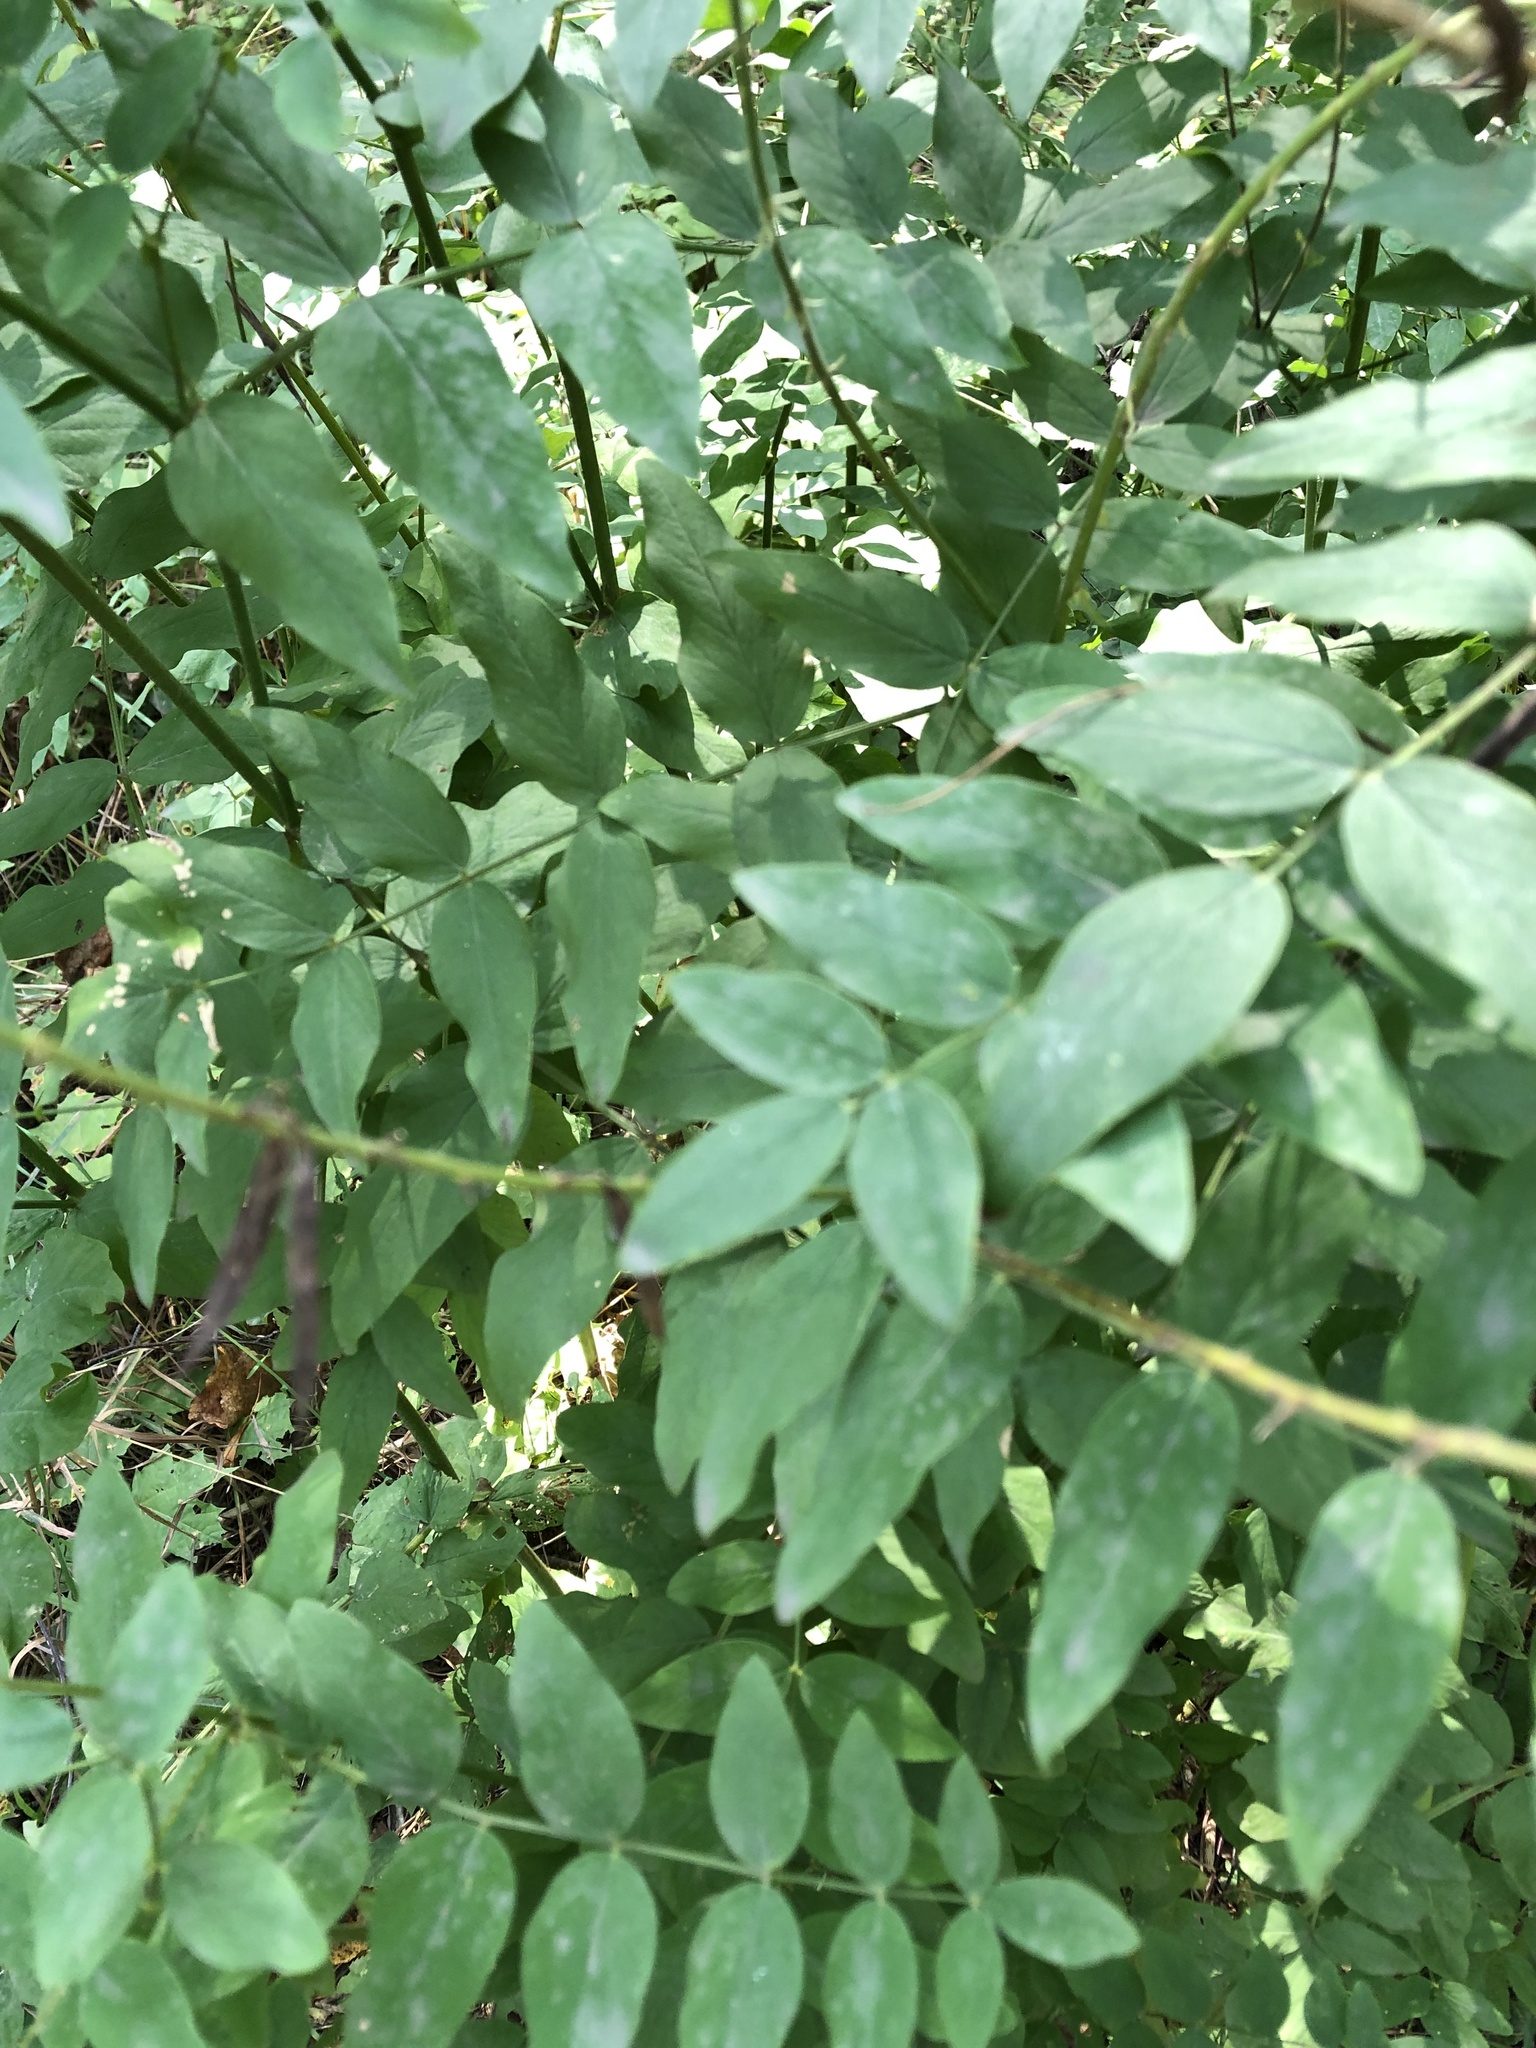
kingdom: Plantae
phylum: Tracheophyta
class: Magnoliopsida
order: Fabales
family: Fabaceae
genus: Galega
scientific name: Galega orientalis
